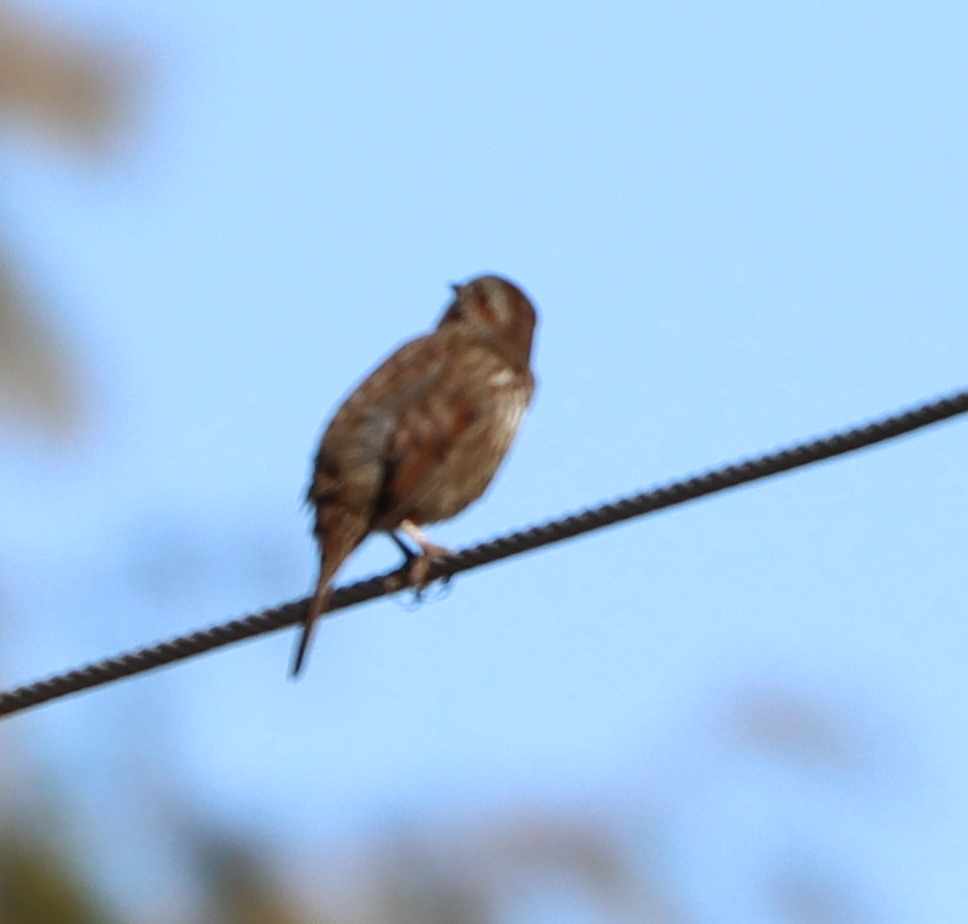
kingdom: Animalia
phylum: Chordata
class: Aves
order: Passeriformes
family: Passerellidae
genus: Melospiza
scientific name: Melospiza melodia
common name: Song sparrow
